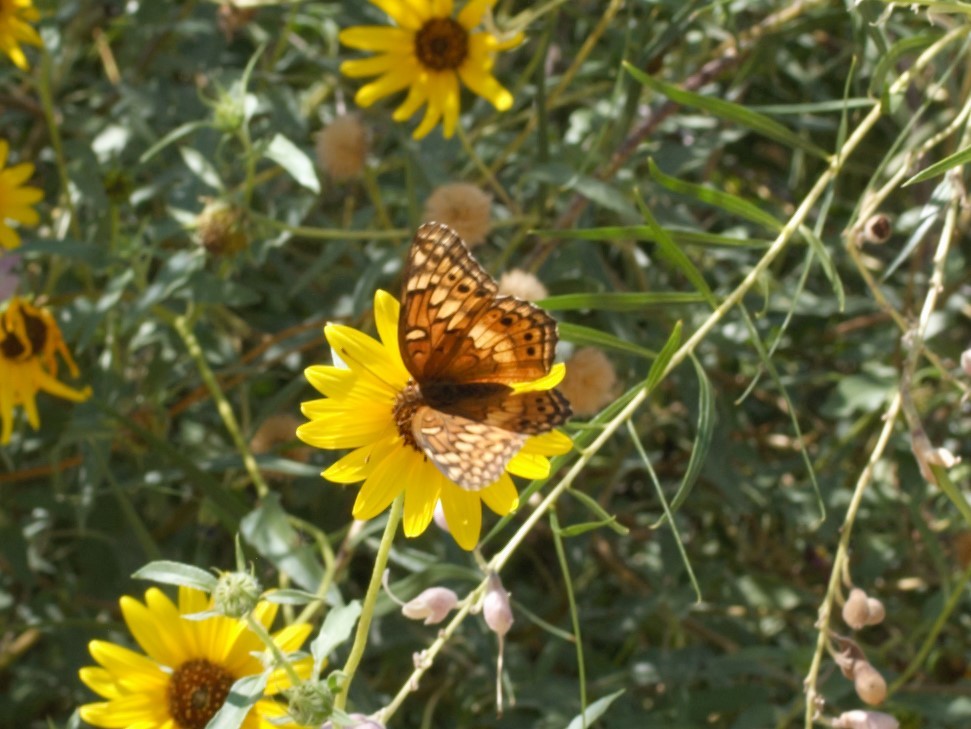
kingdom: Animalia
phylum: Arthropoda
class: Insecta
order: Lepidoptera
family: Nymphalidae
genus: Euptoieta
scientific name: Euptoieta claudia
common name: Variegated fritillary
